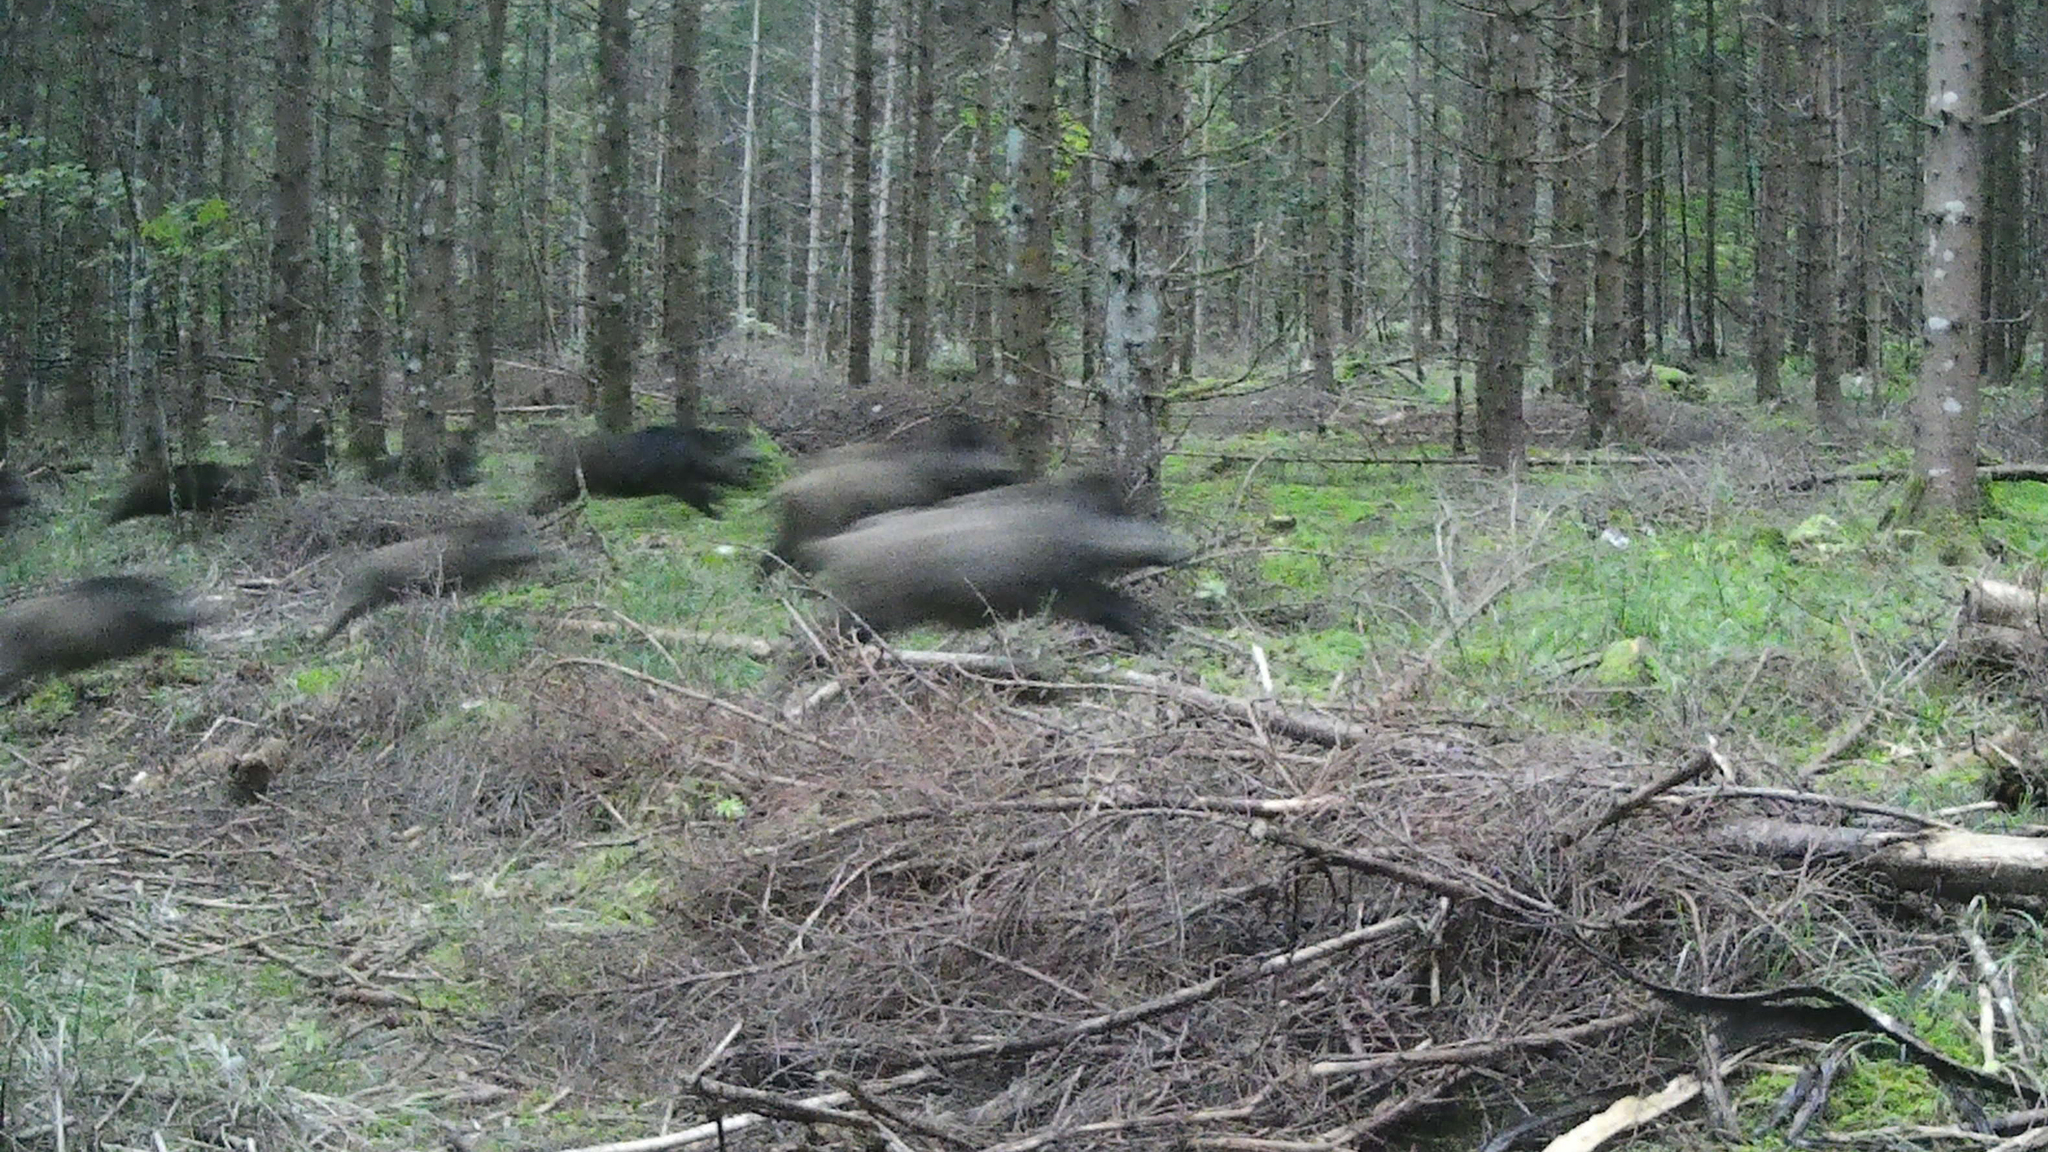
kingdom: Animalia
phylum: Chordata
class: Mammalia
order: Artiodactyla
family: Suidae
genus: Sus
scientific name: Sus scrofa
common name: Wild boar
